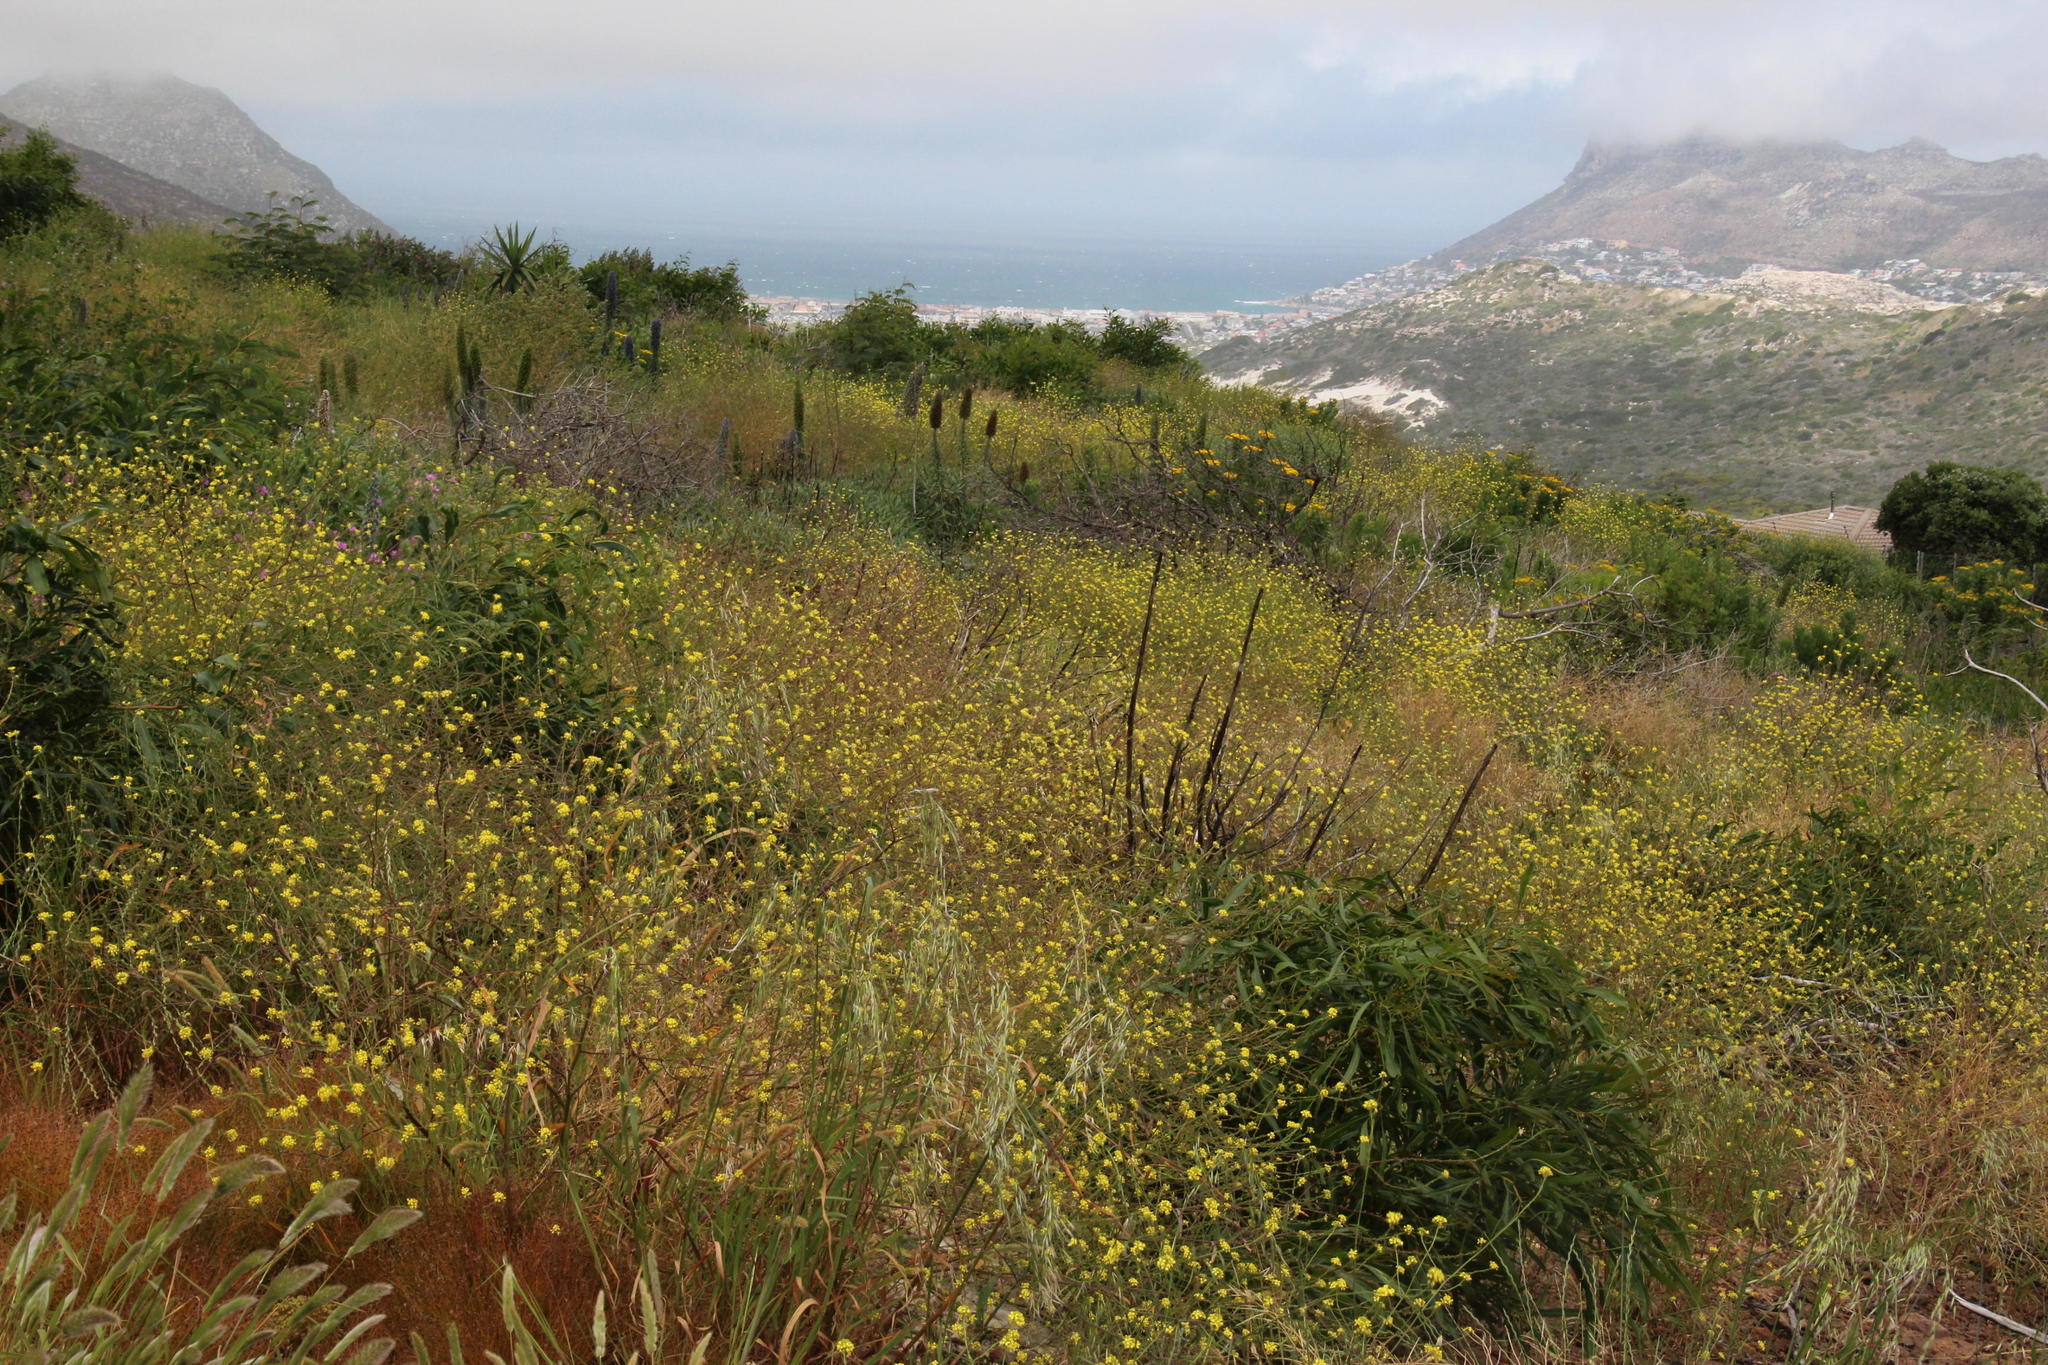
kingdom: Plantae
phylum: Tracheophyta
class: Magnoliopsida
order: Brassicales
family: Brassicaceae
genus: Rapistrum
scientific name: Rapistrum rugosum
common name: Annual bastardcabbage
